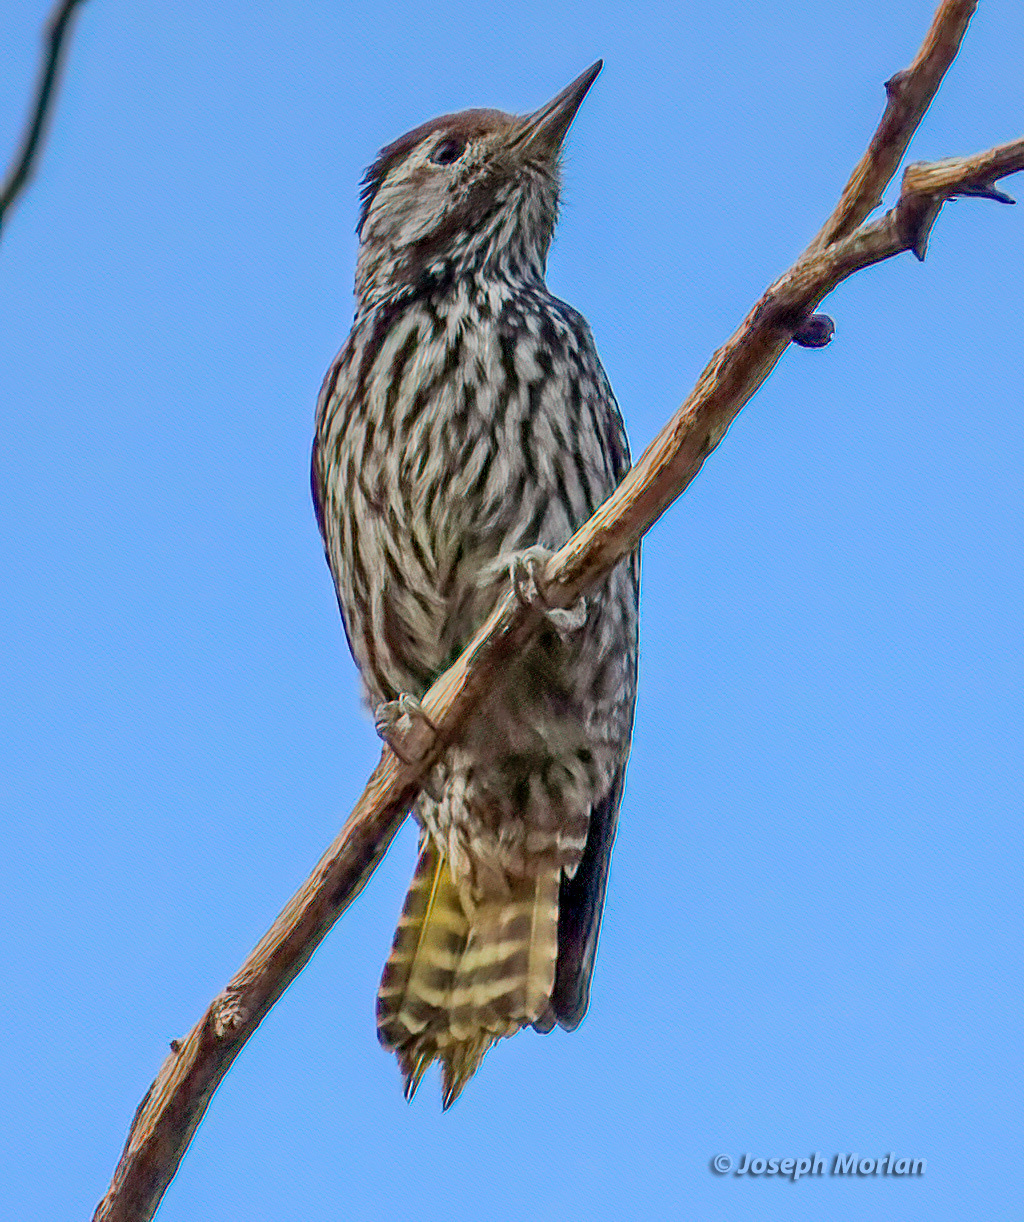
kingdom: Animalia
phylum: Chordata
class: Aves
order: Piciformes
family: Picidae
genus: Dendropicos
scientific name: Dendropicos fuscescens
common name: Cardinal woodpecker
